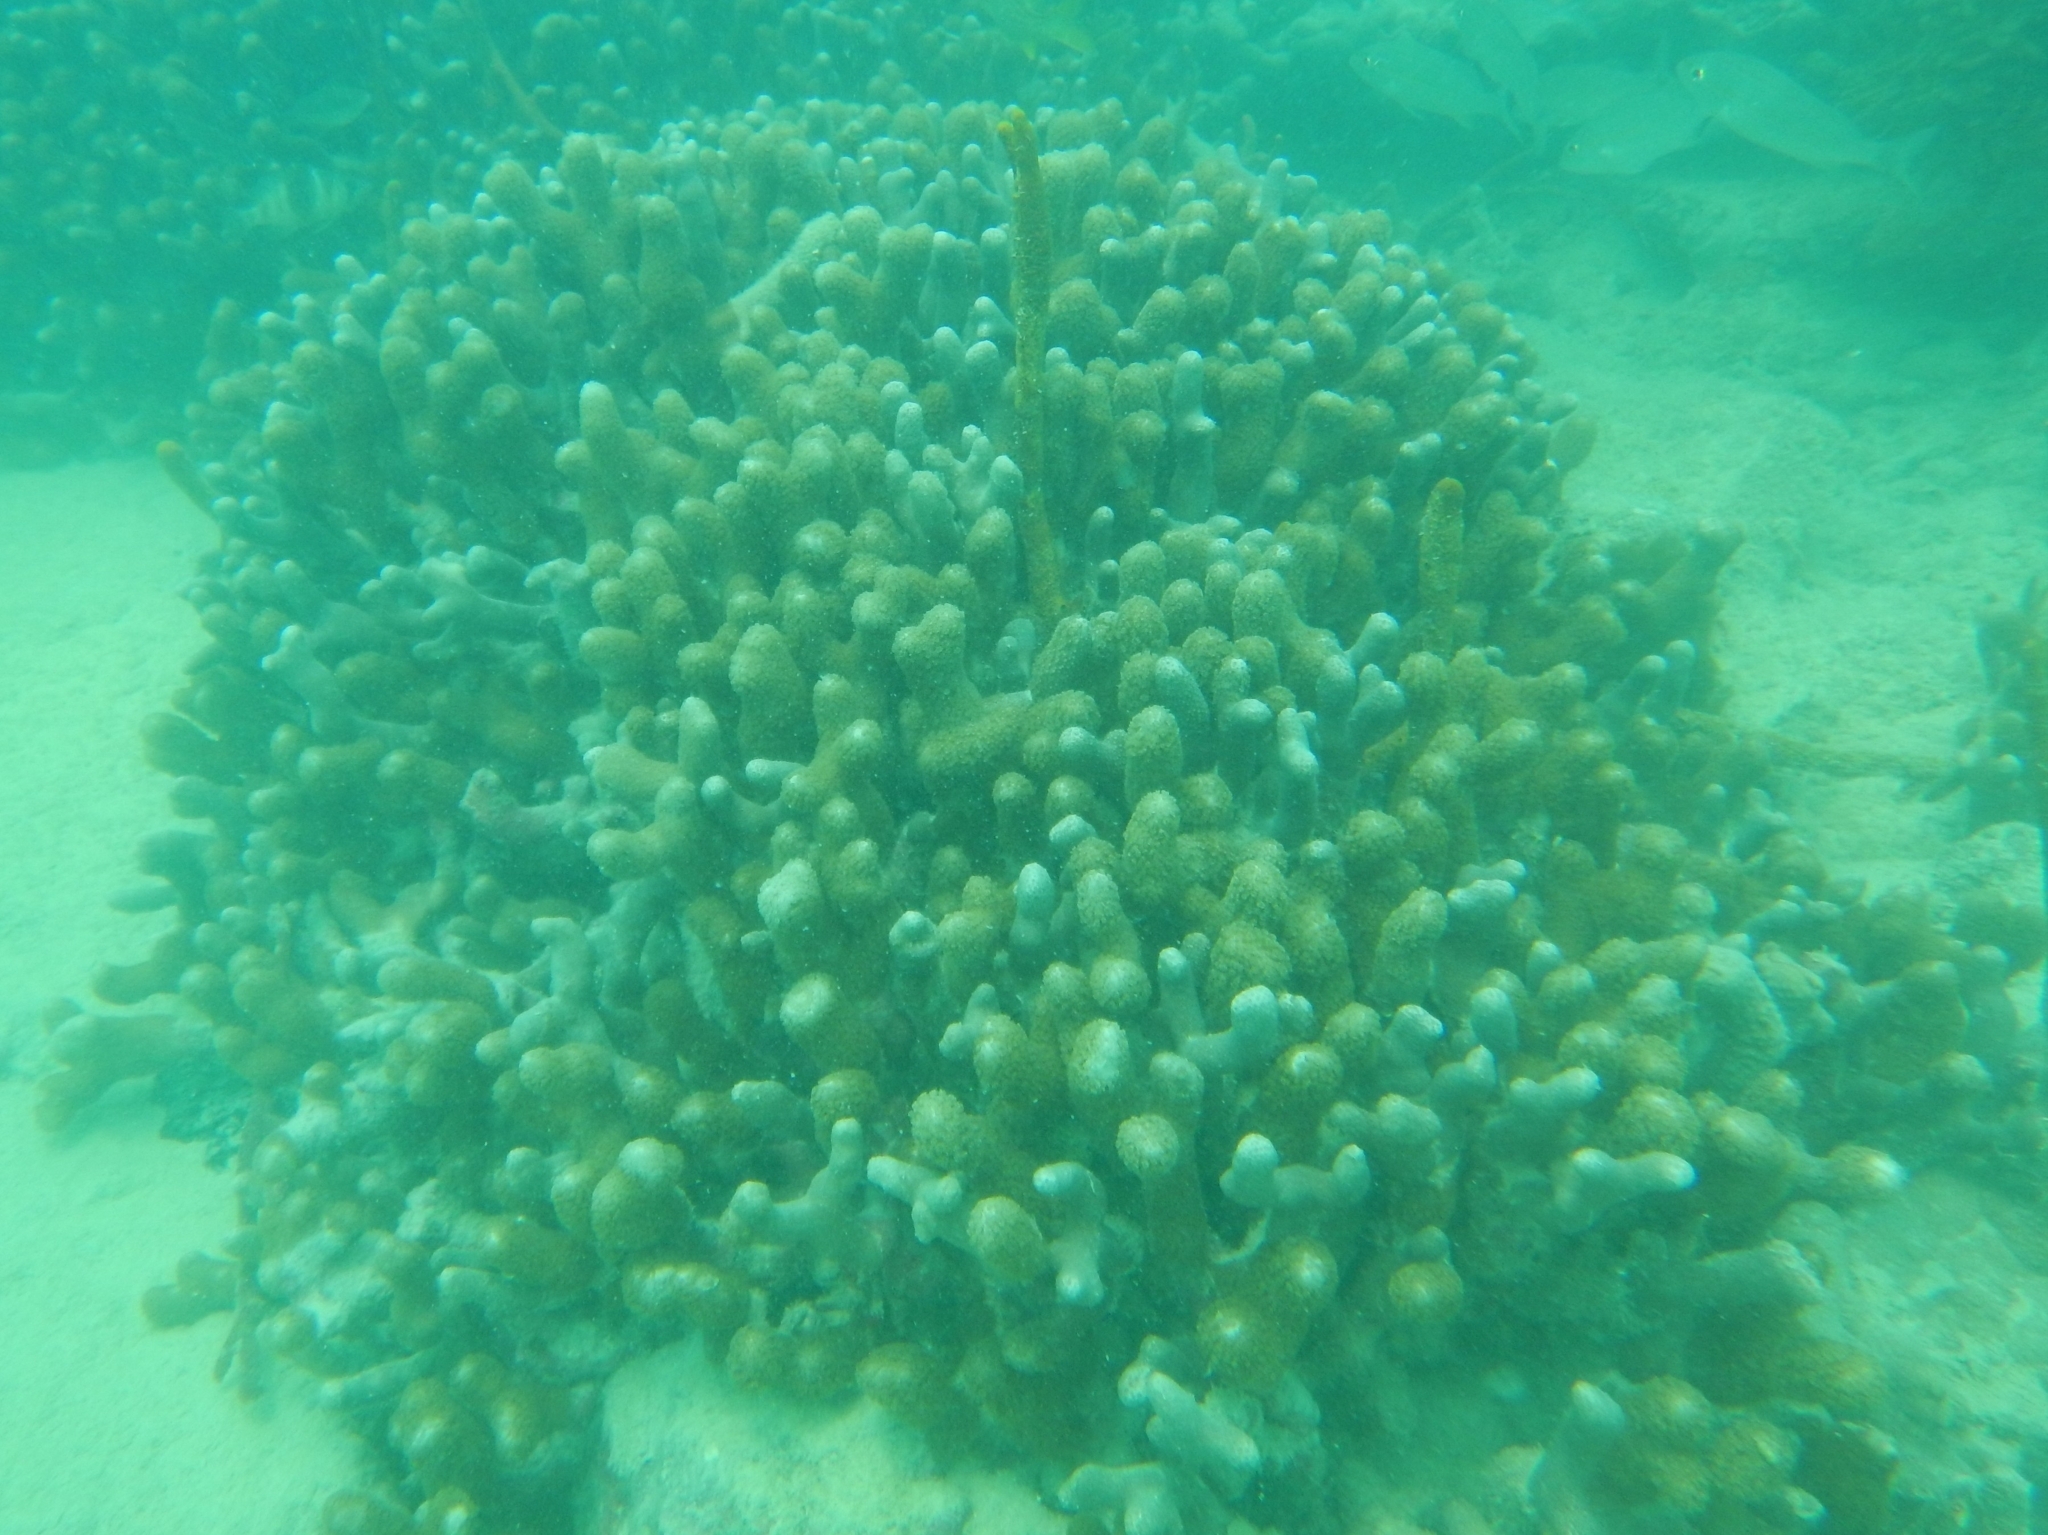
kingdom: Animalia
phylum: Cnidaria
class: Anthozoa
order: Scleractinia
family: Poritidae
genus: Porites
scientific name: Porites porites
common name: Finger coral
